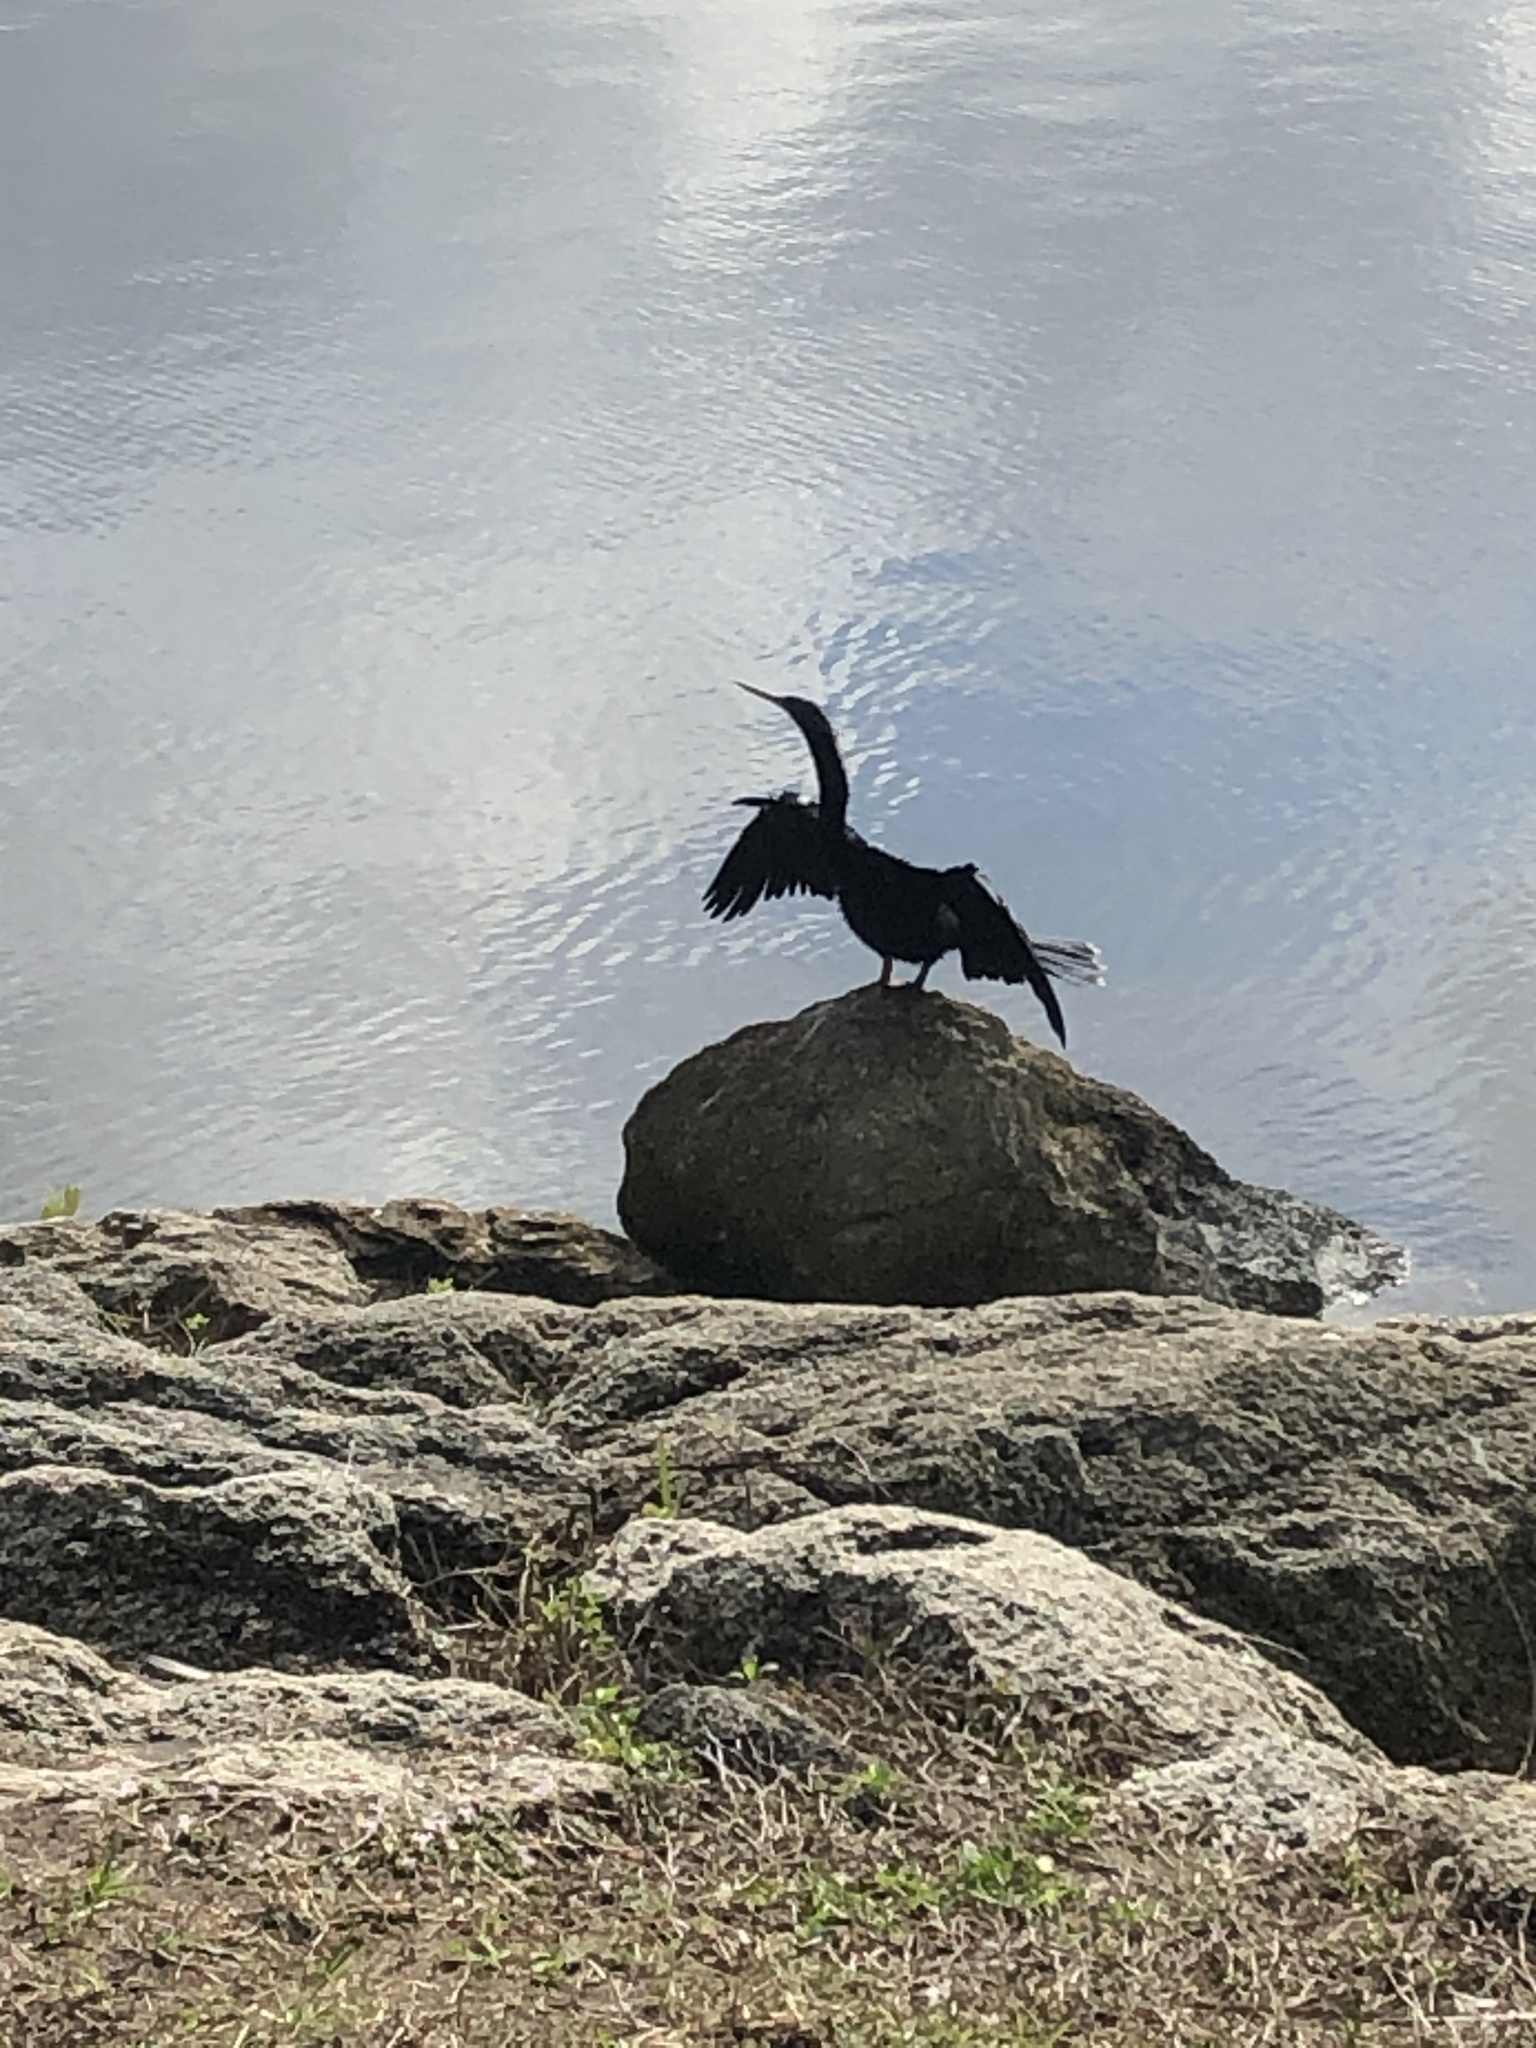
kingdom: Animalia
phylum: Chordata
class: Aves
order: Suliformes
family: Anhingidae
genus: Anhinga
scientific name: Anhinga anhinga
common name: Anhinga
